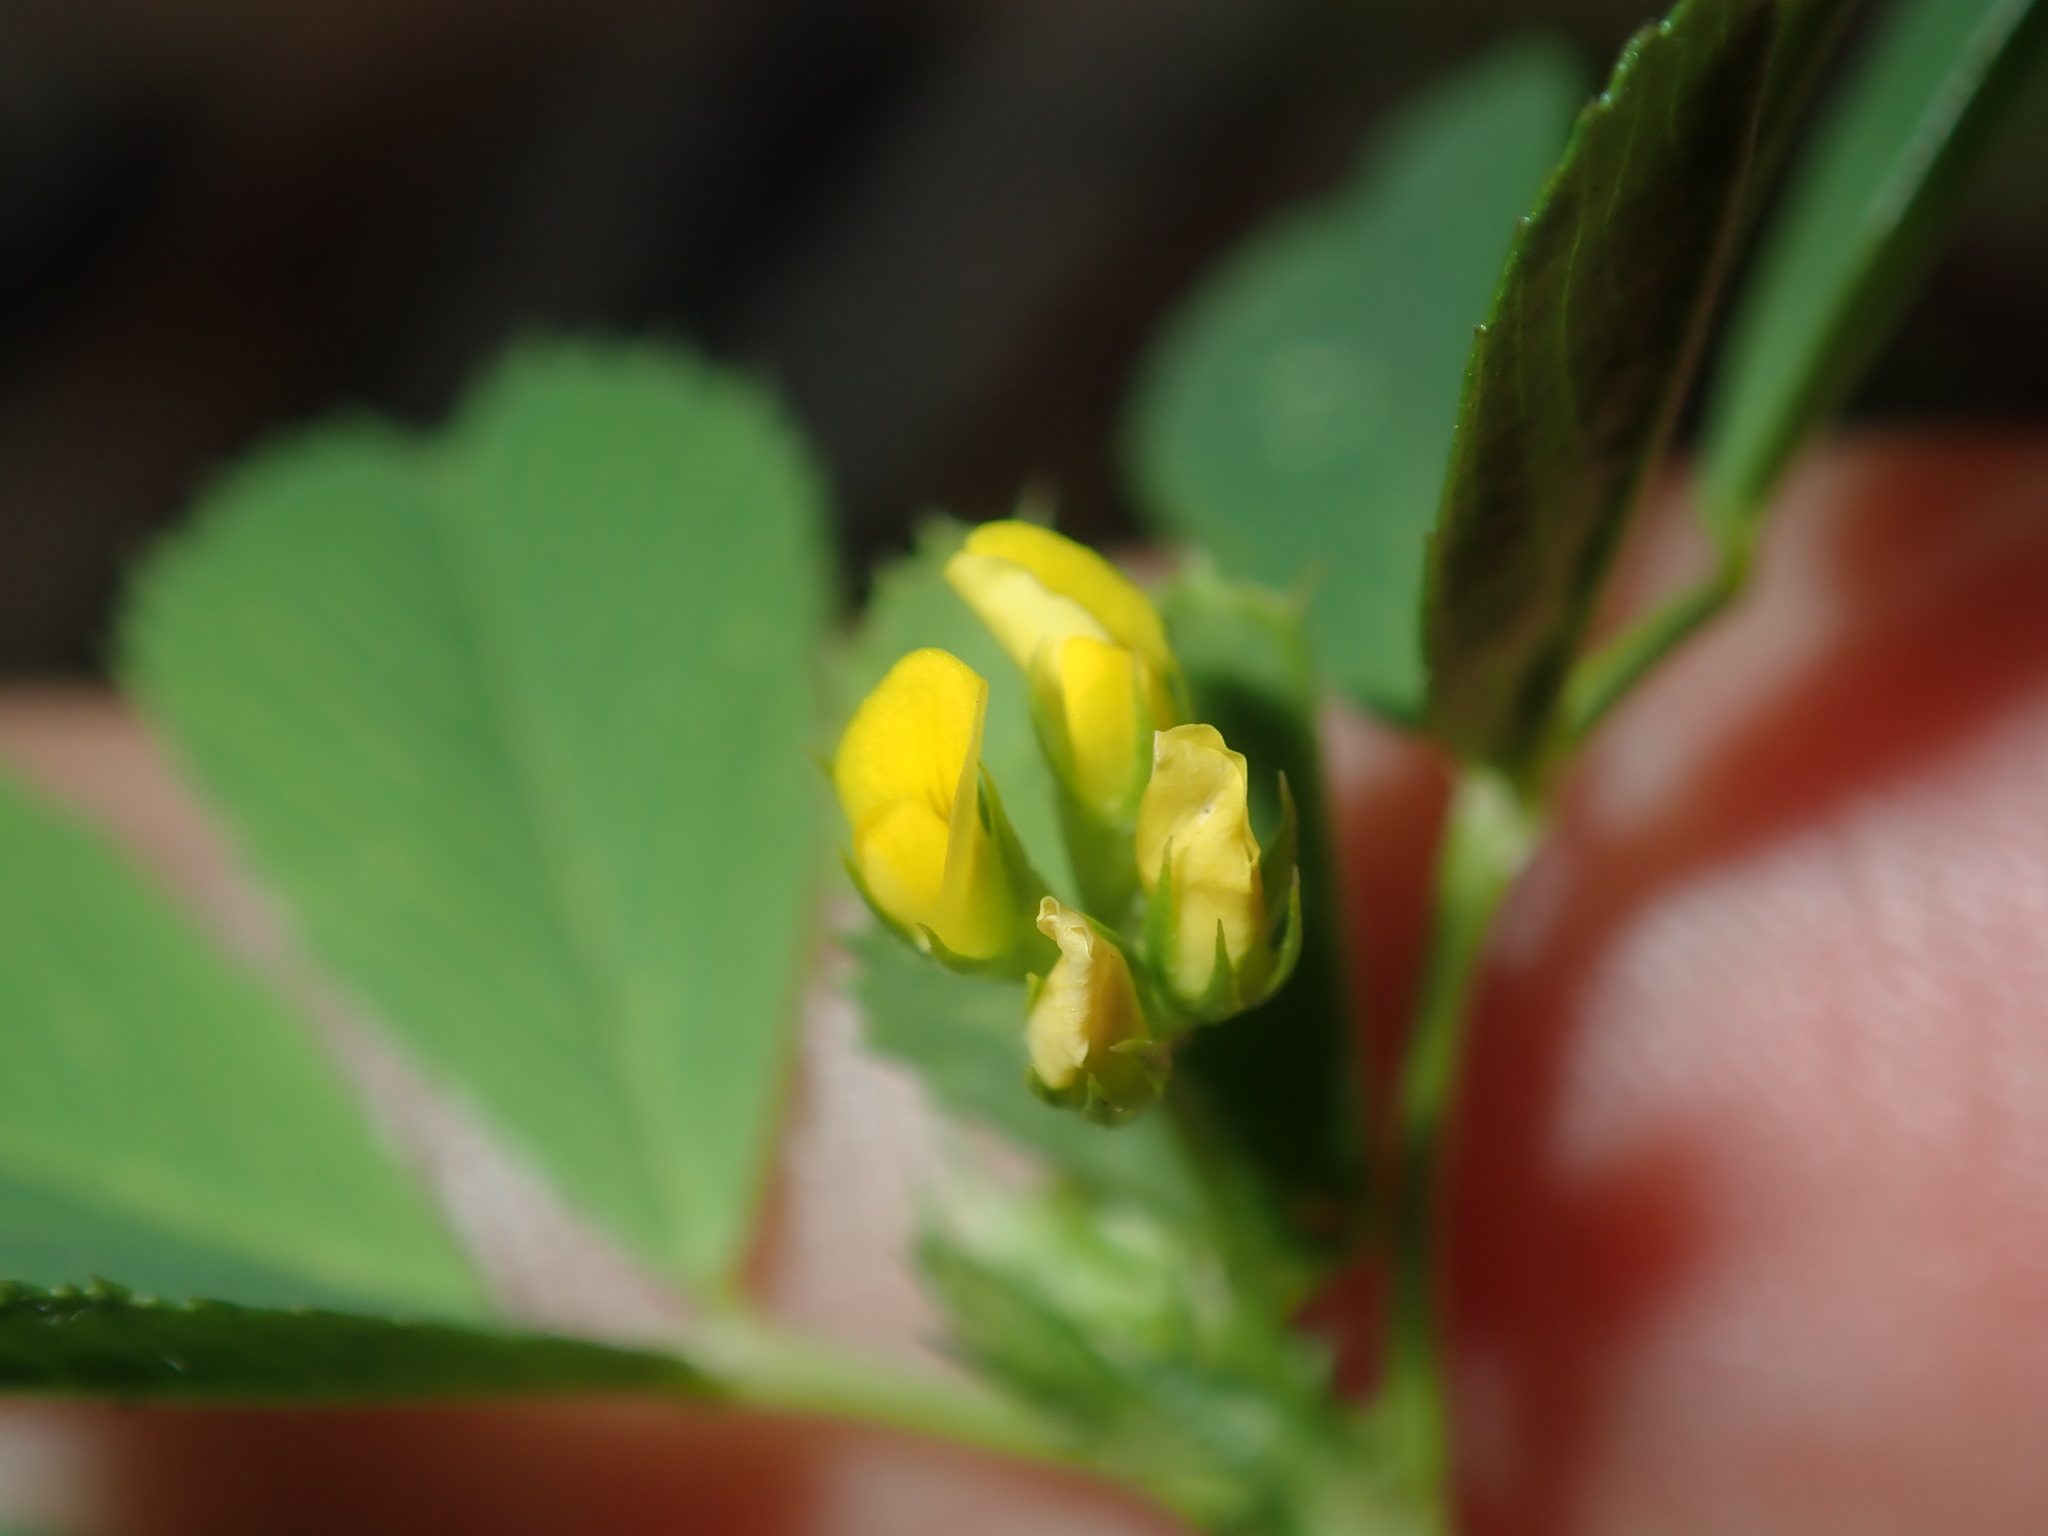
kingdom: Plantae
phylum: Tracheophyta
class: Magnoliopsida
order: Fabales
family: Fabaceae
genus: Medicago
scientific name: Medicago polymorpha
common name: Burclover
